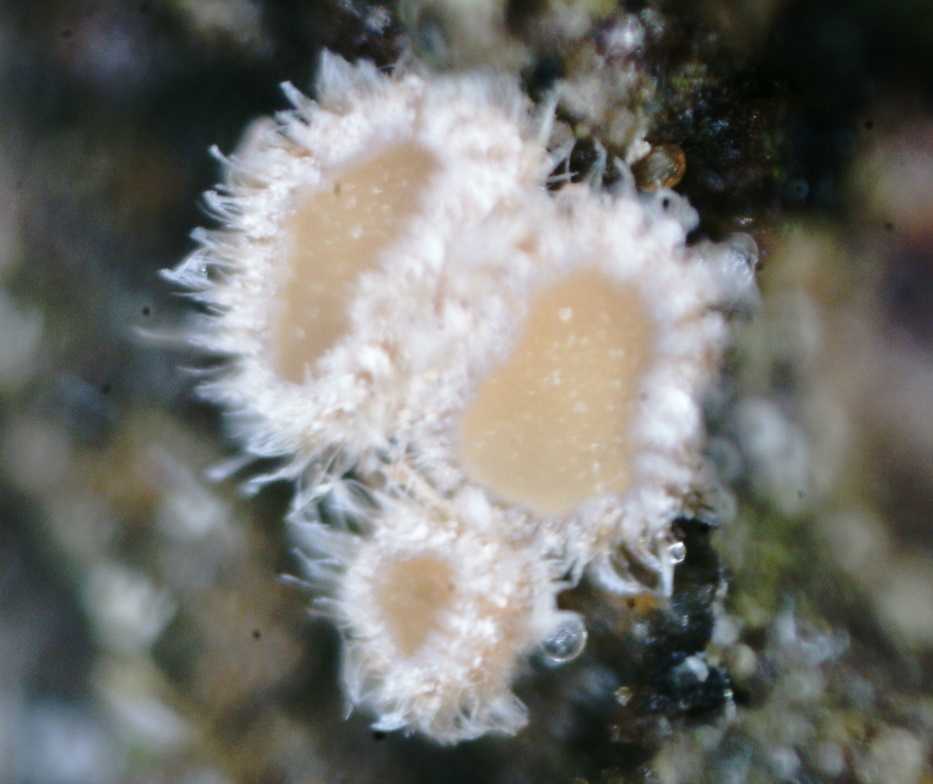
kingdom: Fungi
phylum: Ascomycota
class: Leotiomycetes
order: Helotiales
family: Lachnaceae
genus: Lachnum
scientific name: Lachnum corticale
